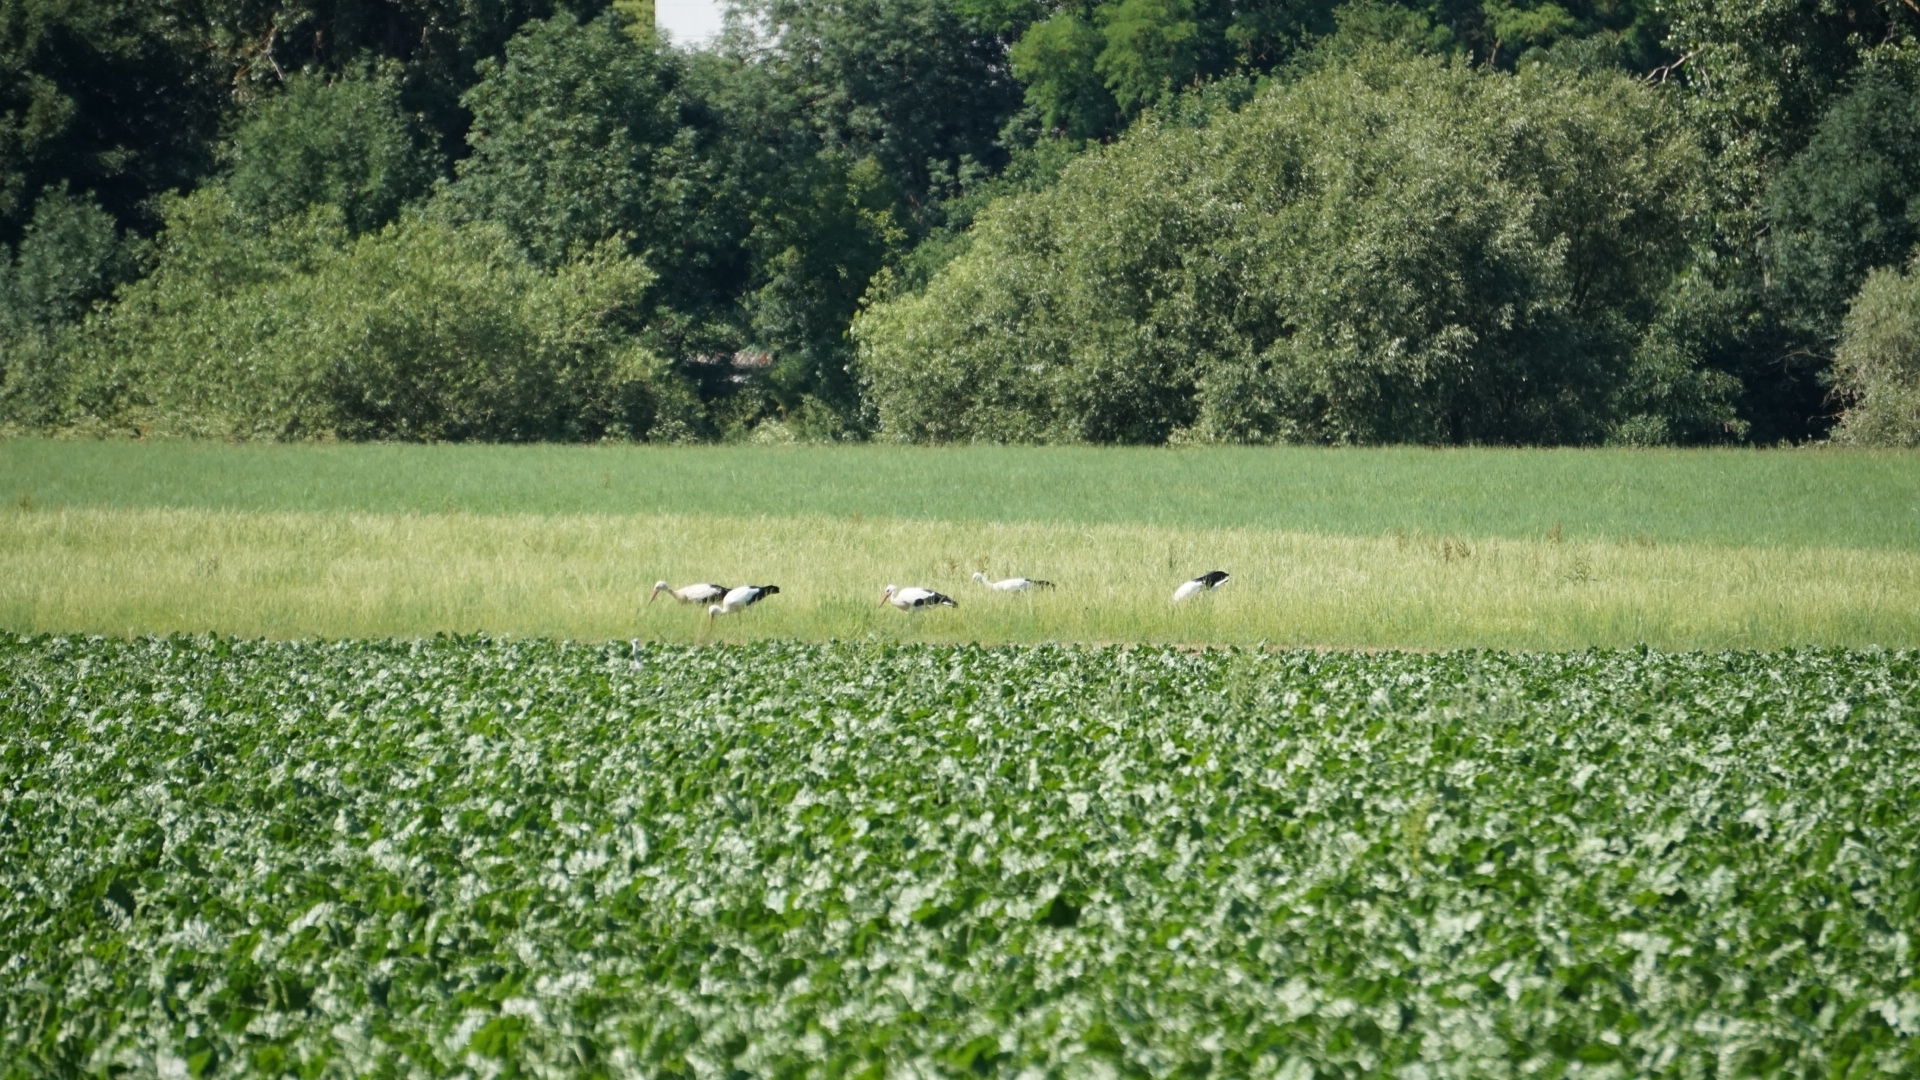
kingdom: Animalia
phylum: Chordata
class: Aves
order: Ciconiiformes
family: Ciconiidae
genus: Ciconia
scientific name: Ciconia ciconia
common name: White stork
